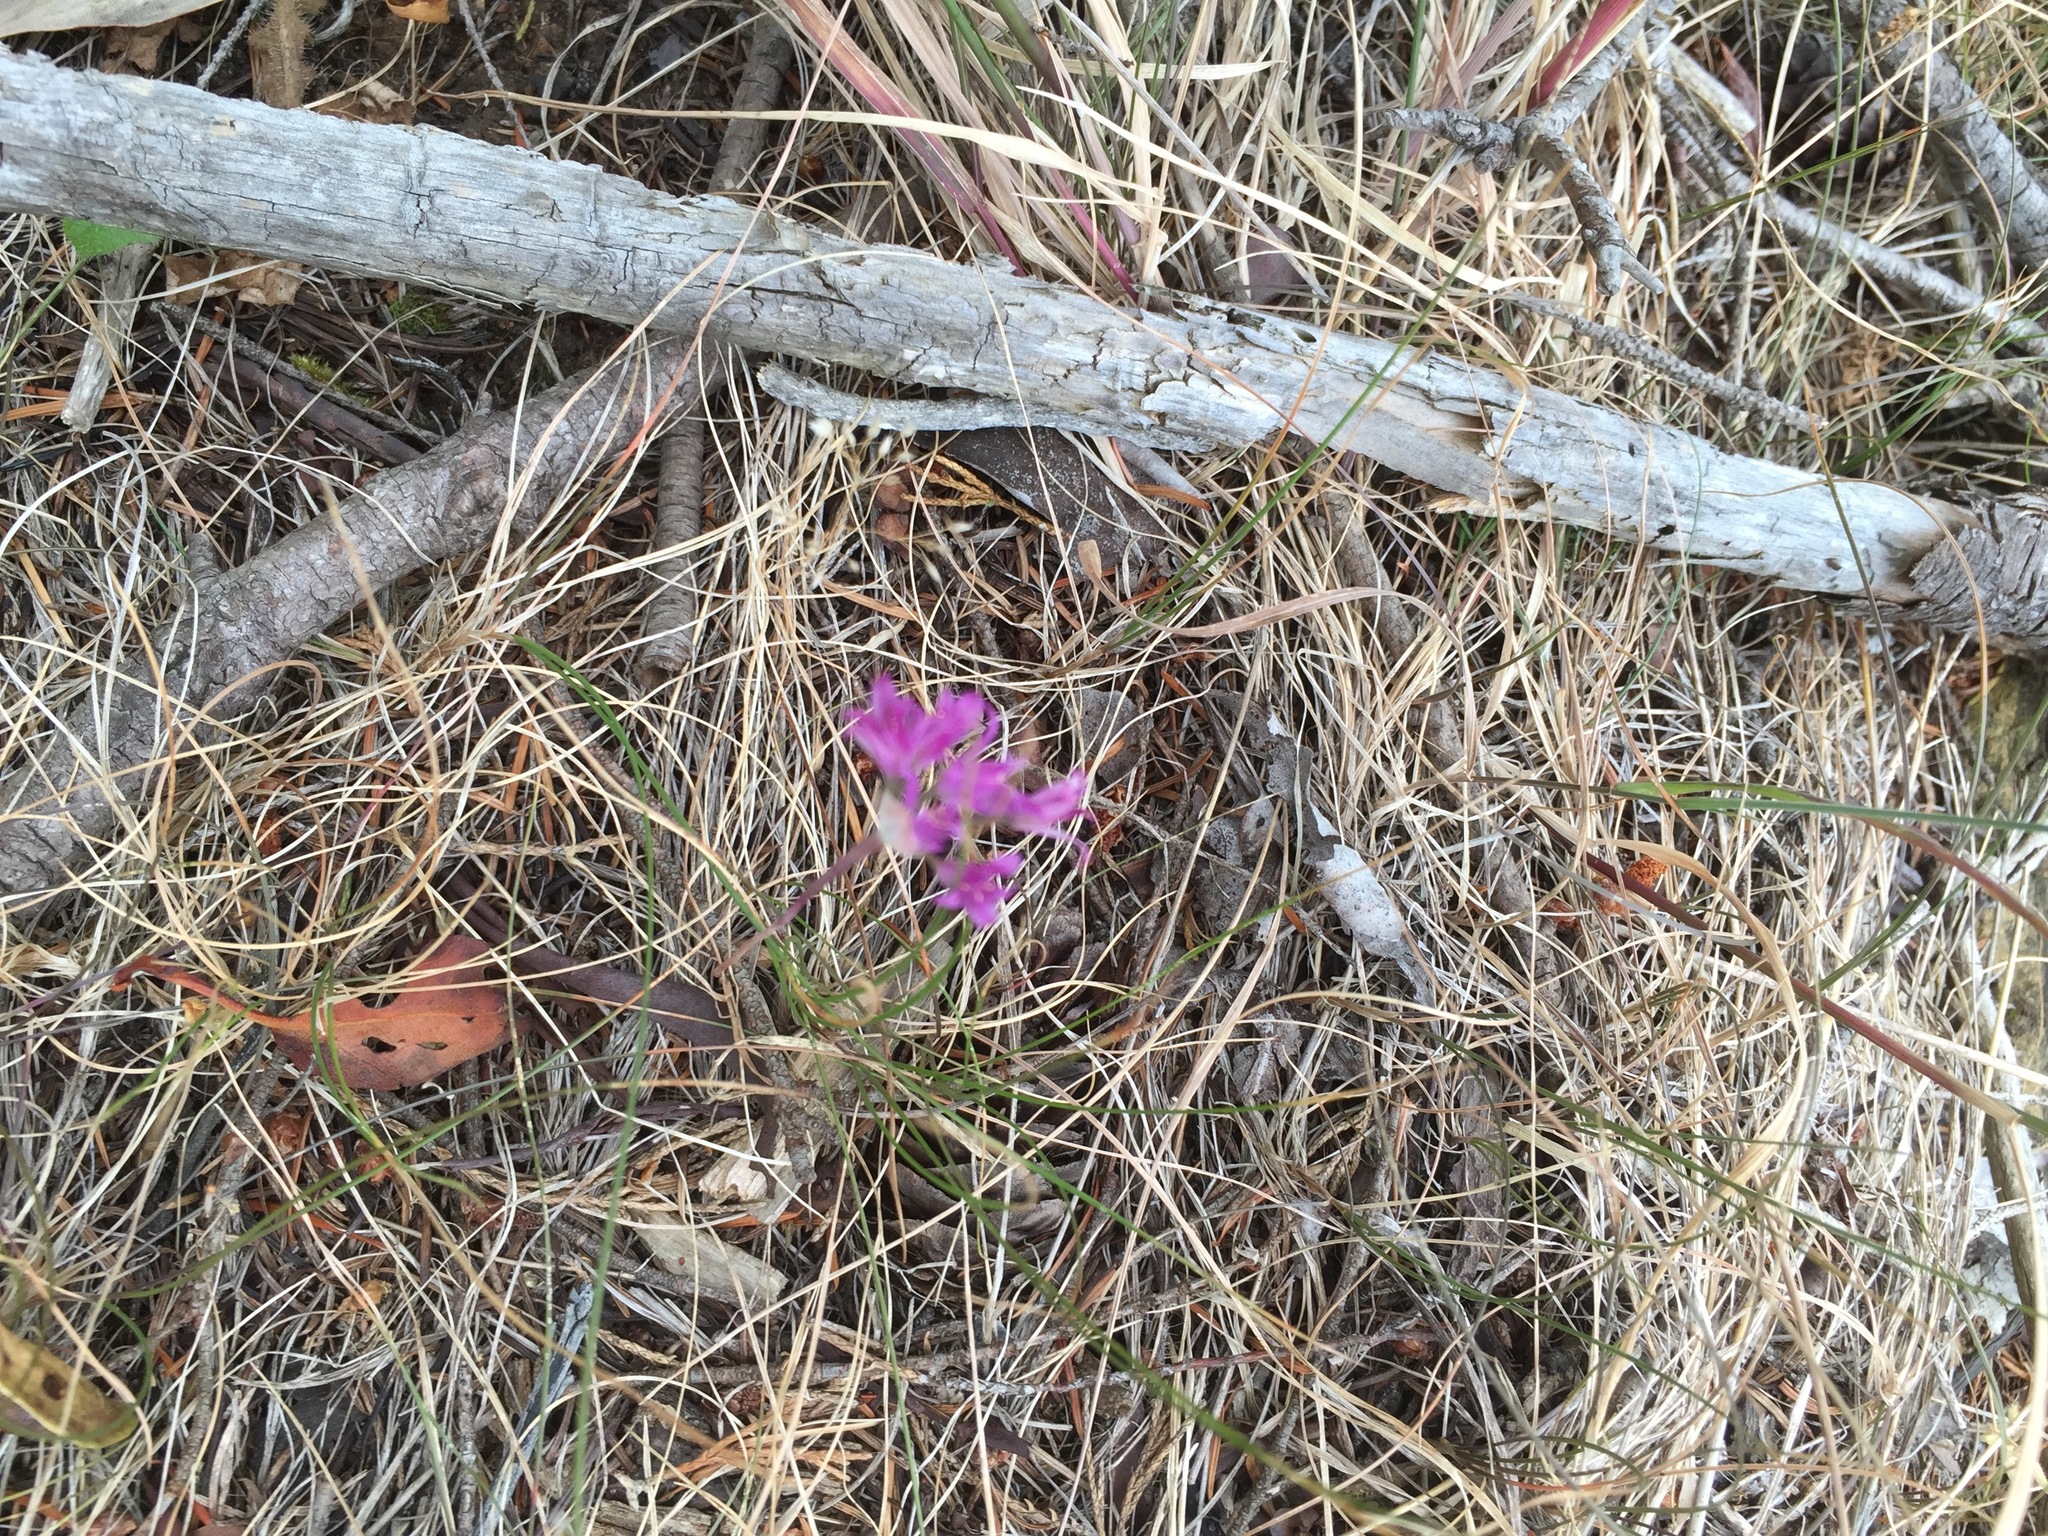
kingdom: Plantae
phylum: Tracheophyta
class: Liliopsida
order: Asparagales
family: Amaryllidaceae
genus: Allium
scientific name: Allium acuminatum
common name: Hooker's onion
